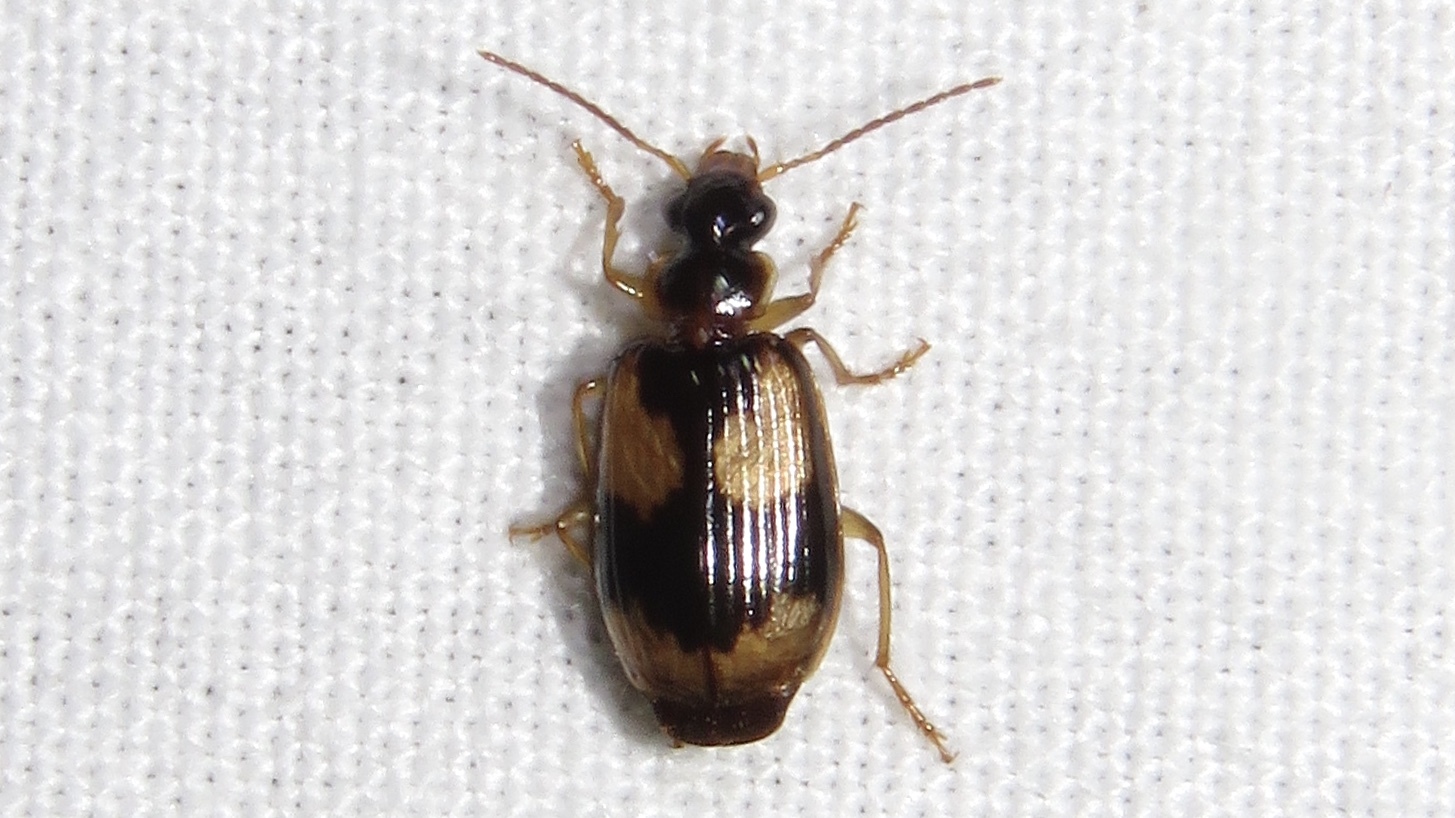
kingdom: Animalia
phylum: Arthropoda
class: Insecta
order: Coleoptera
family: Carabidae
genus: Lebia
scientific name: Lebia fuscata
